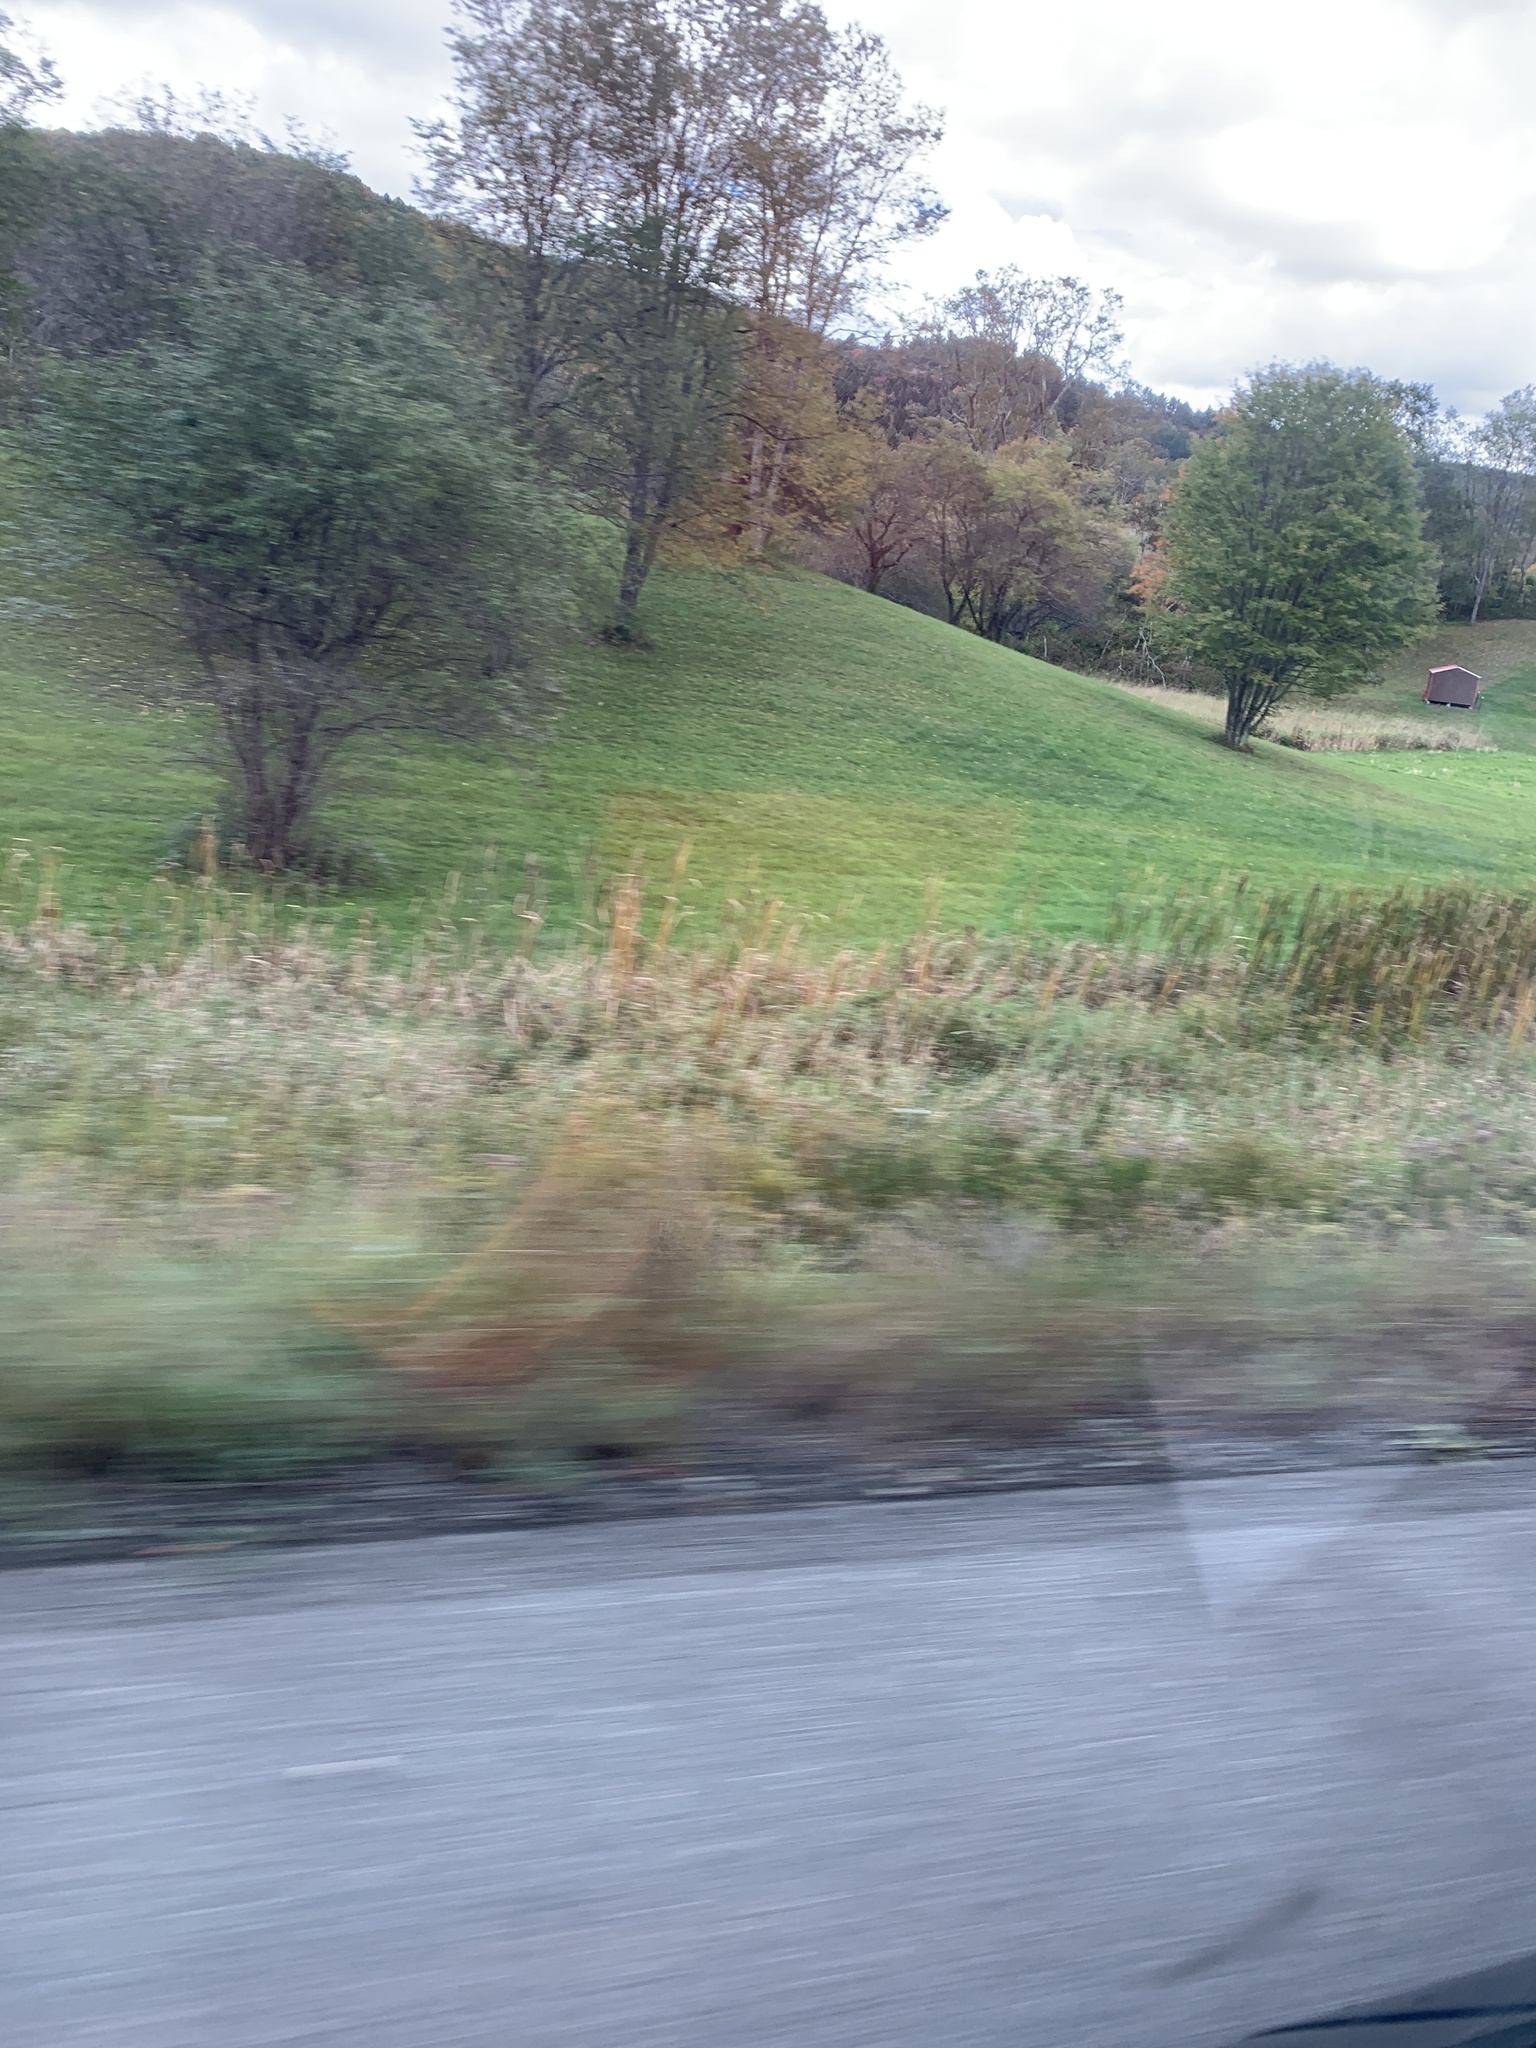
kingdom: Plantae
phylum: Tracheophyta
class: Liliopsida
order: Poales
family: Typhaceae
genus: Typha
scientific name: Typha
